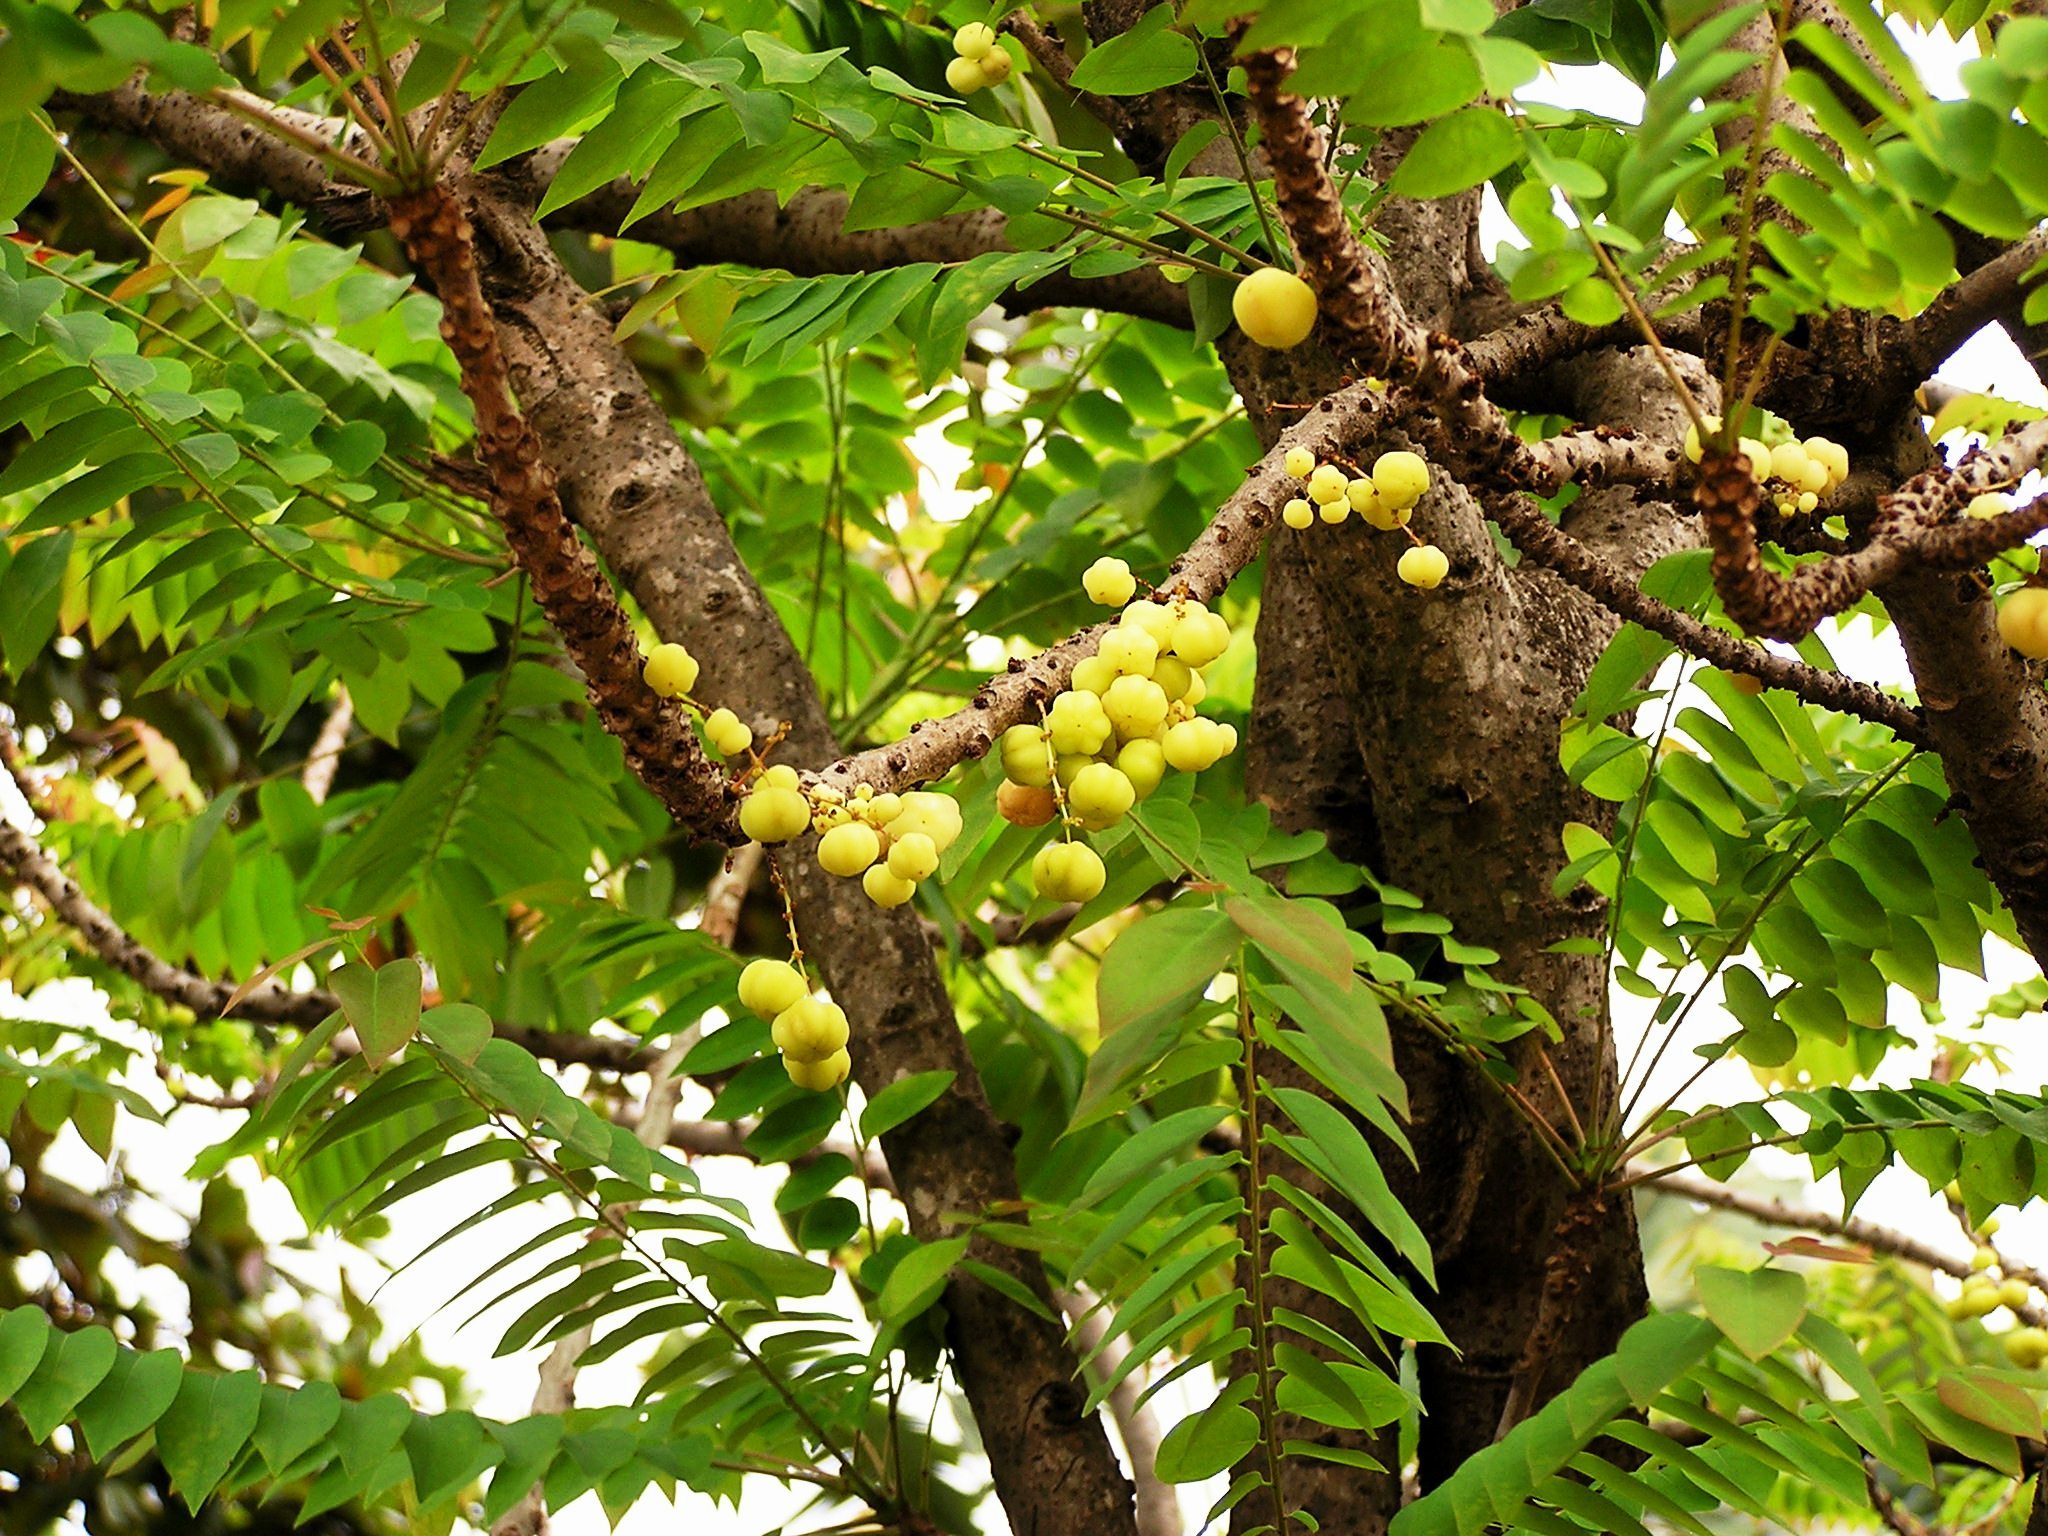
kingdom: Plantae
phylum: Tracheophyta
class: Magnoliopsida
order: Malpighiales
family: Phyllanthaceae
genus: Phyllanthus
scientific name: Phyllanthus acidus
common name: Tahitian gooseberry tree
